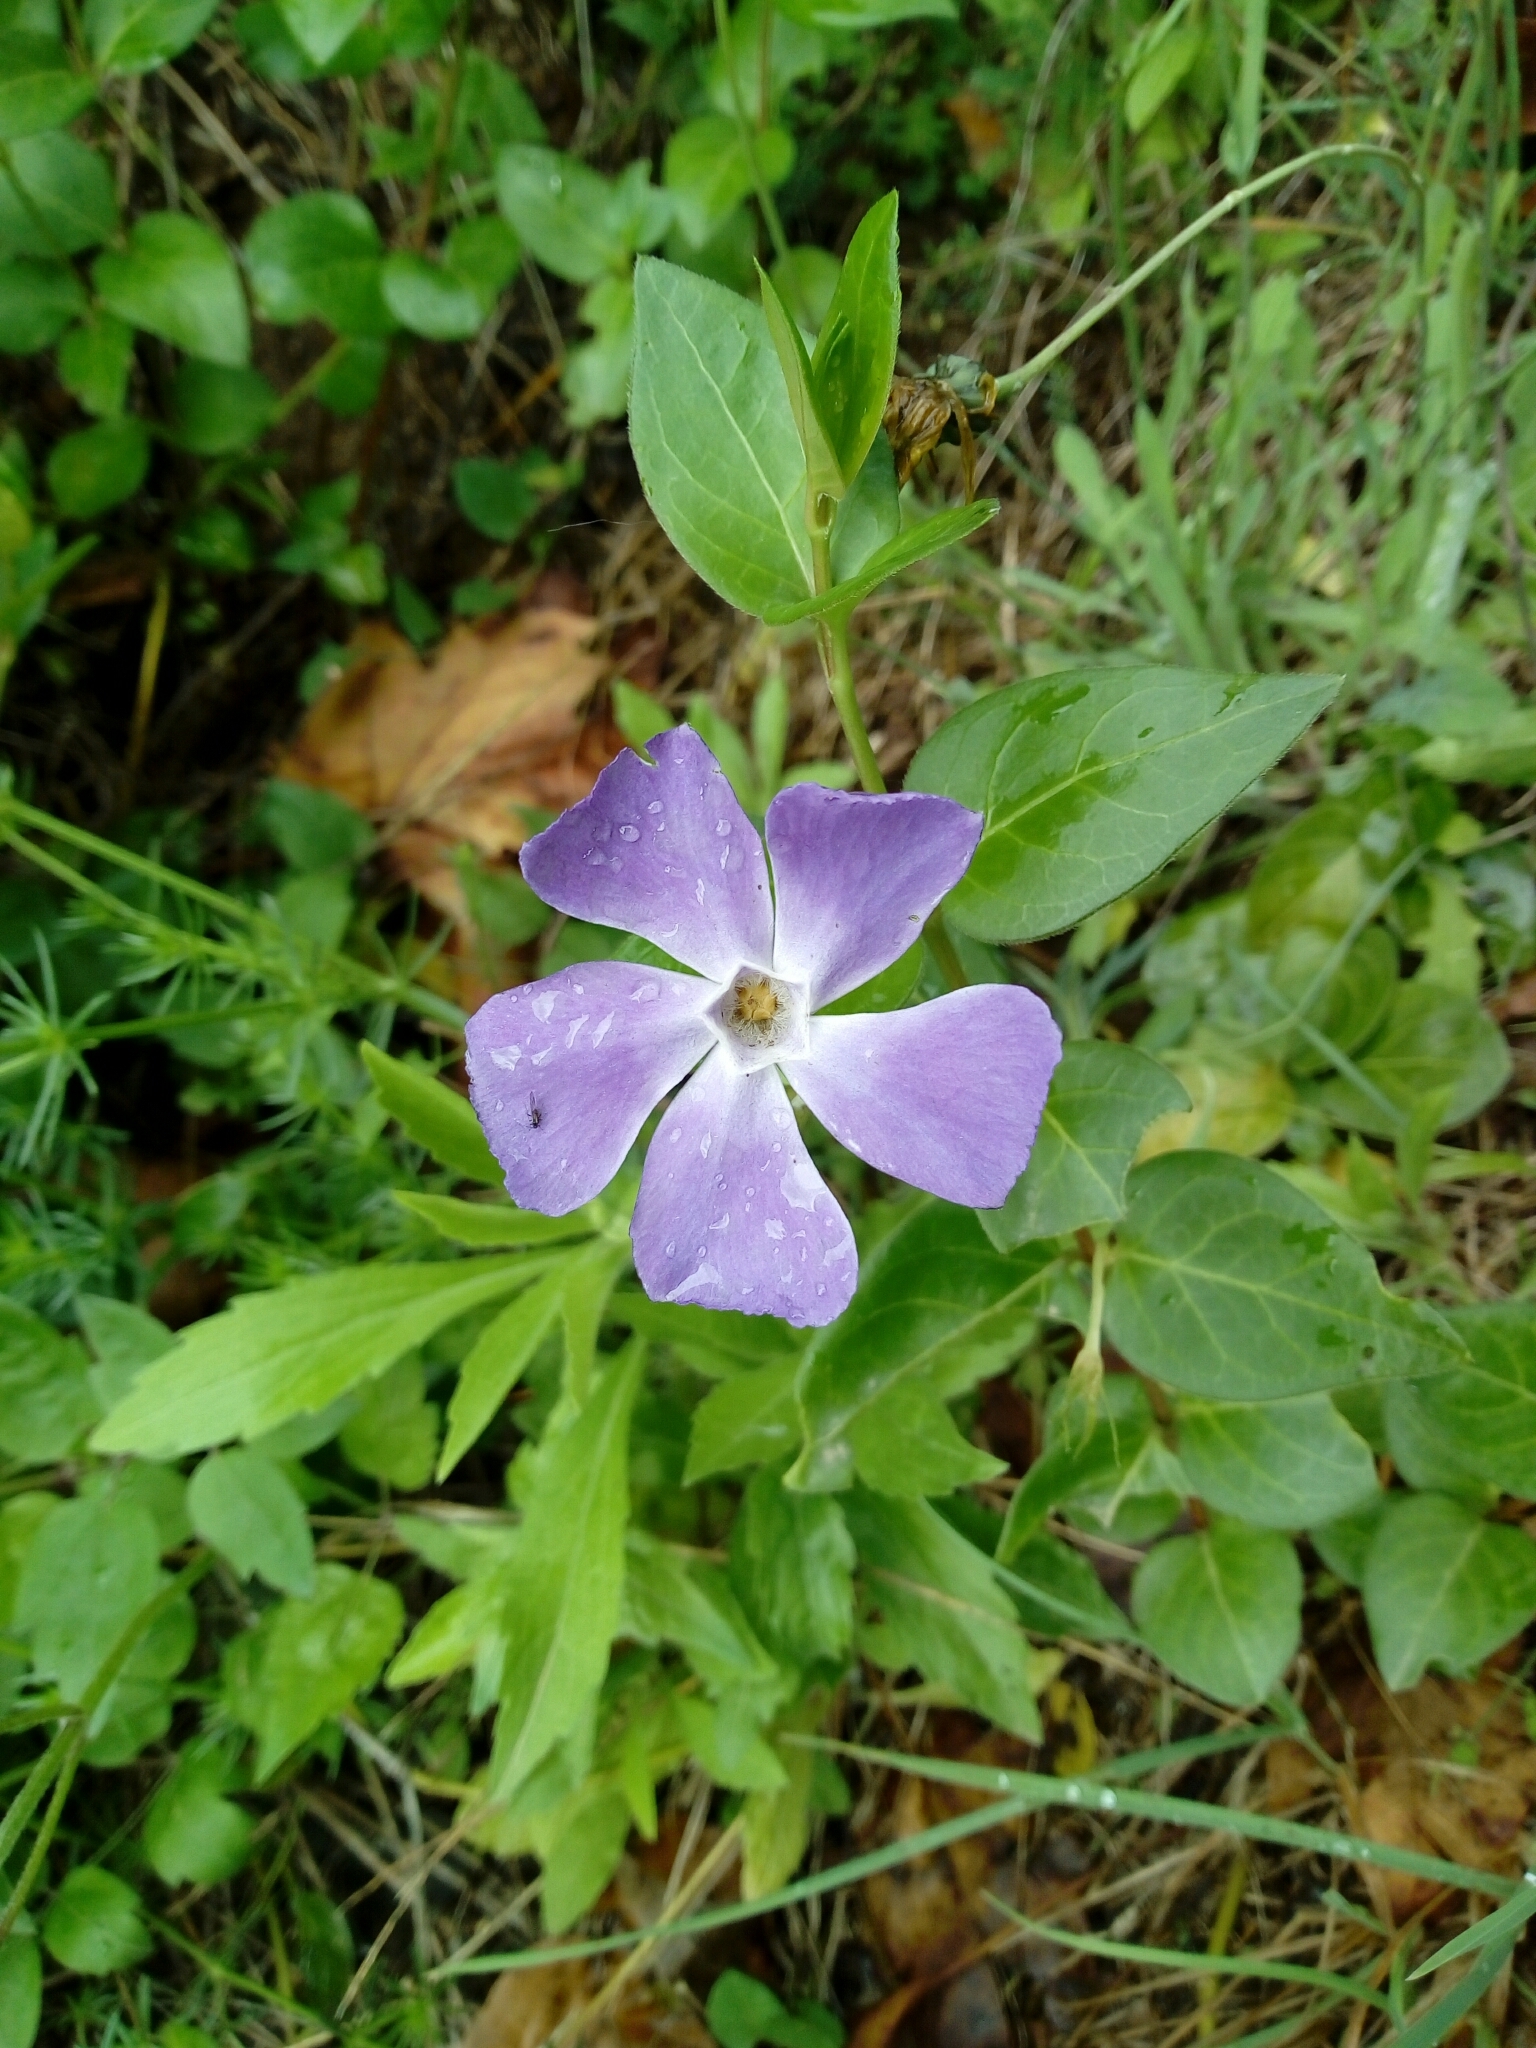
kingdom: Plantae
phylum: Tracheophyta
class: Magnoliopsida
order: Gentianales
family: Apocynaceae
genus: Vinca
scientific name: Vinca major
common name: Greater periwinkle
